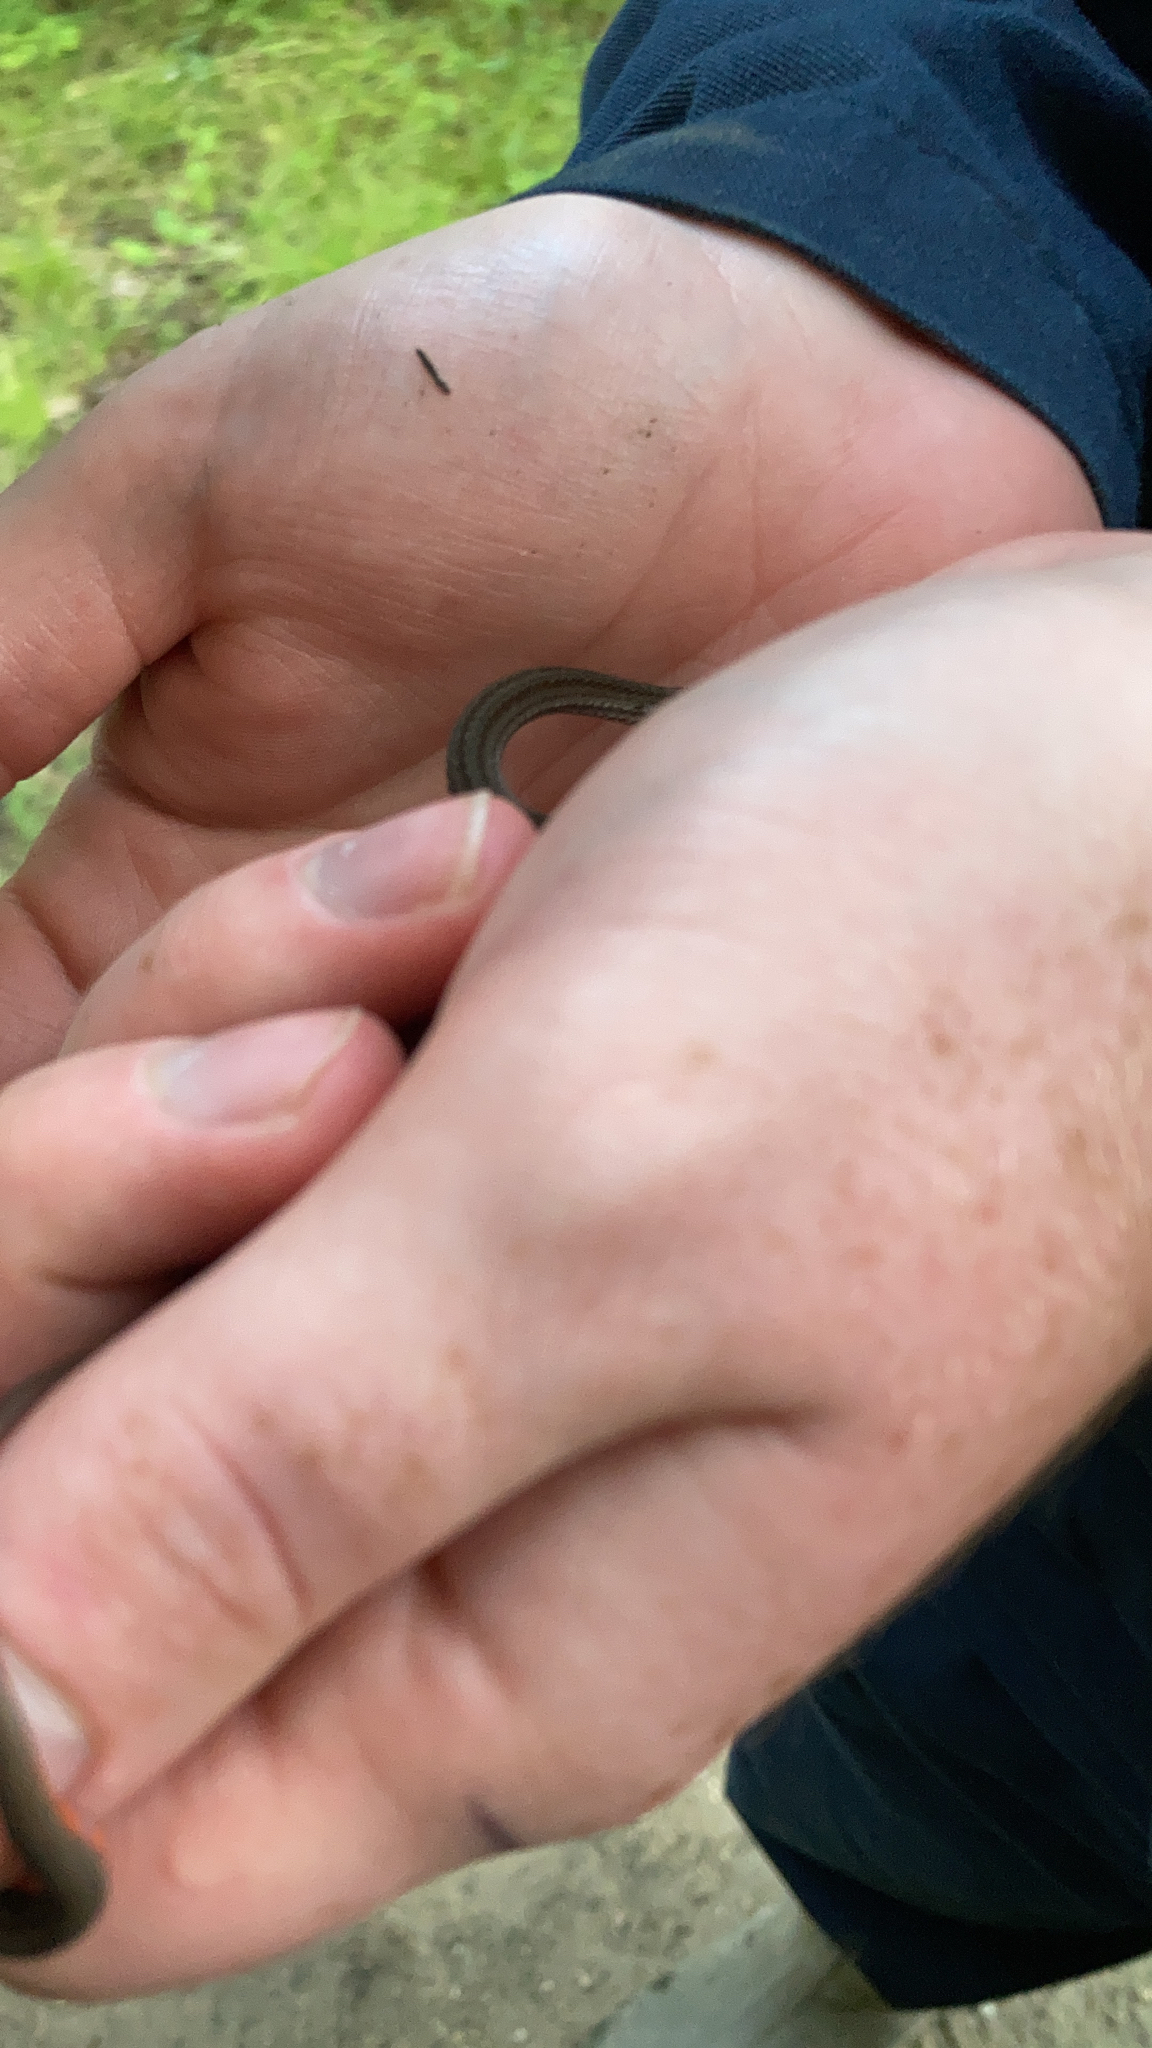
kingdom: Animalia
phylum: Chordata
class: Squamata
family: Colubridae
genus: Storeria
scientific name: Storeria occipitomaculata
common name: Redbelly snake
